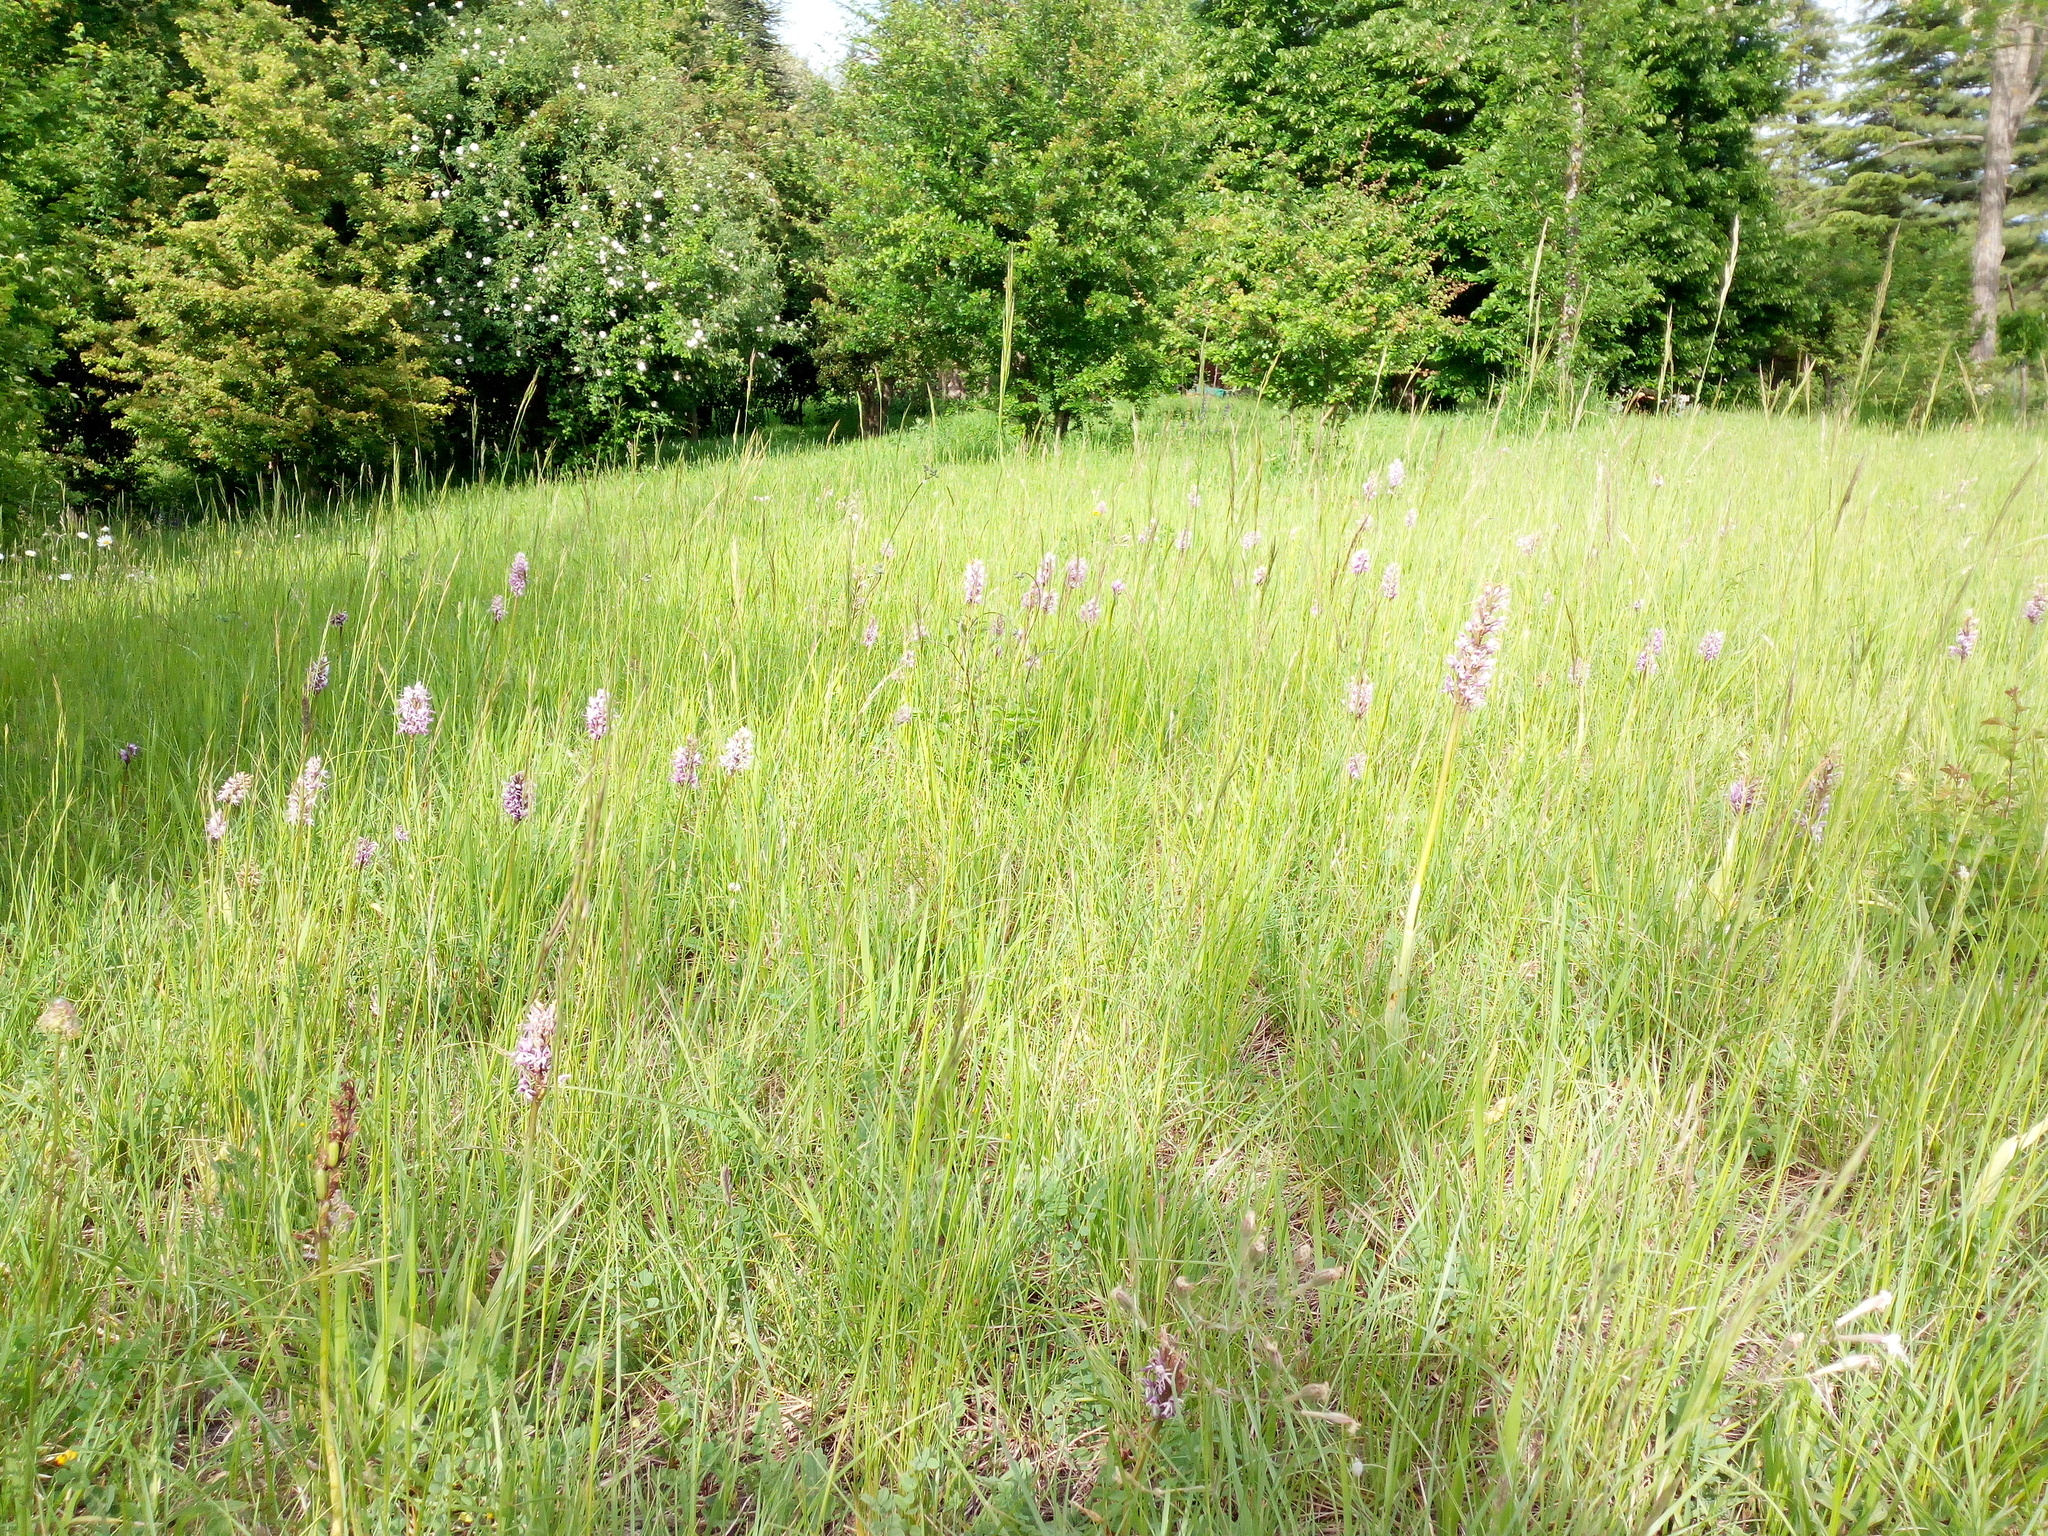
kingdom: Plantae
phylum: Tracheophyta
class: Liliopsida
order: Asparagales
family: Orchidaceae
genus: Orchis
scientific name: Orchis simia
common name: Monkey orchid
